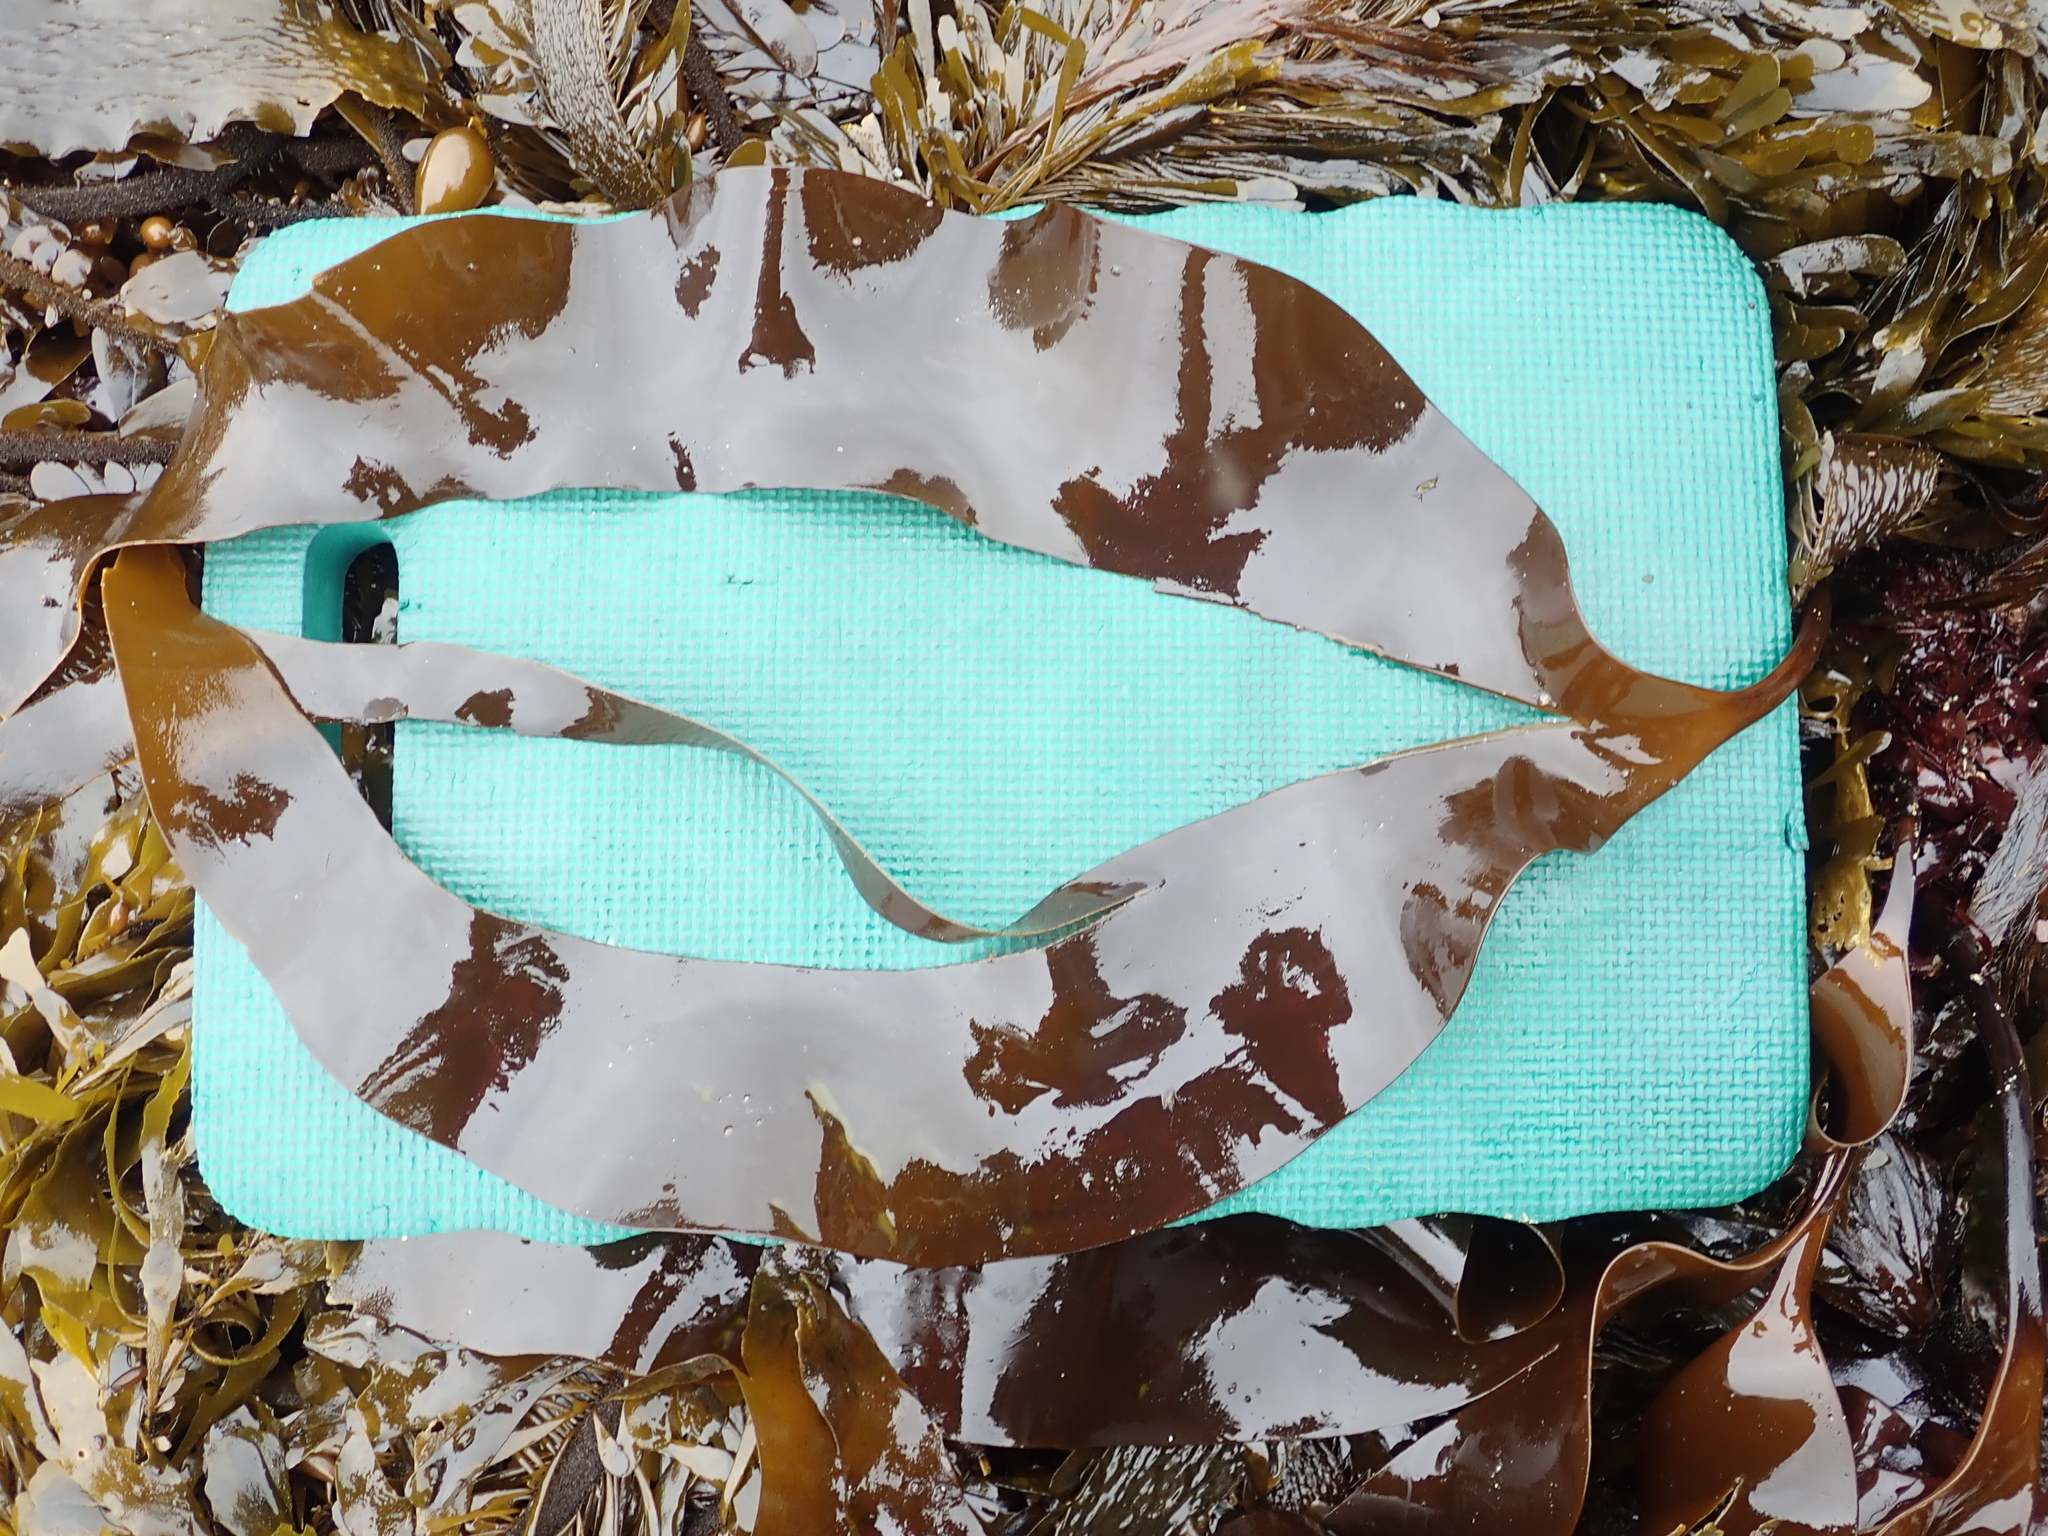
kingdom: Chromista
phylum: Ochrophyta
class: Phaeophyceae
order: Laminariales
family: Laminariaceae
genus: Laminaria
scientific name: Laminaria setchellii
